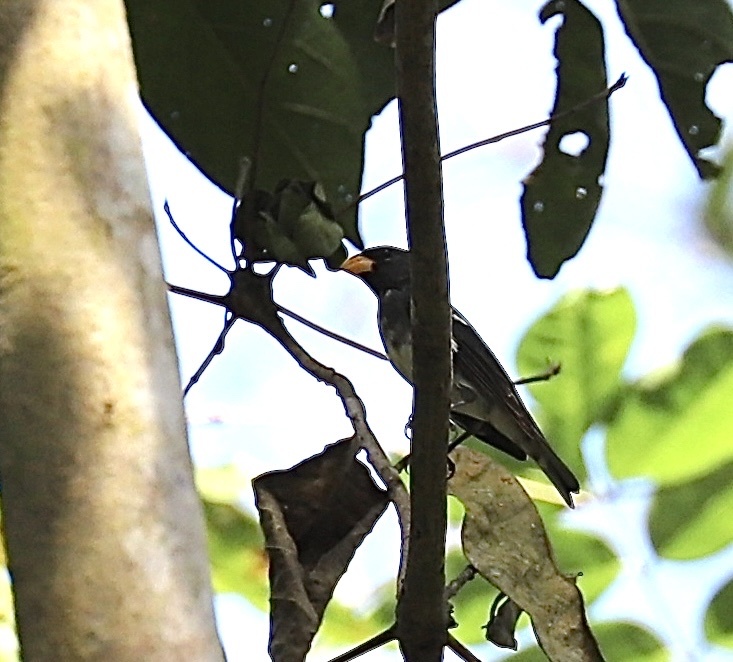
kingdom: Animalia
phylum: Chordata
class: Aves
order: Passeriformes
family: Thraupidae
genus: Sporophila
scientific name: Sporophila schistacea
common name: Slate-colored seedeater
